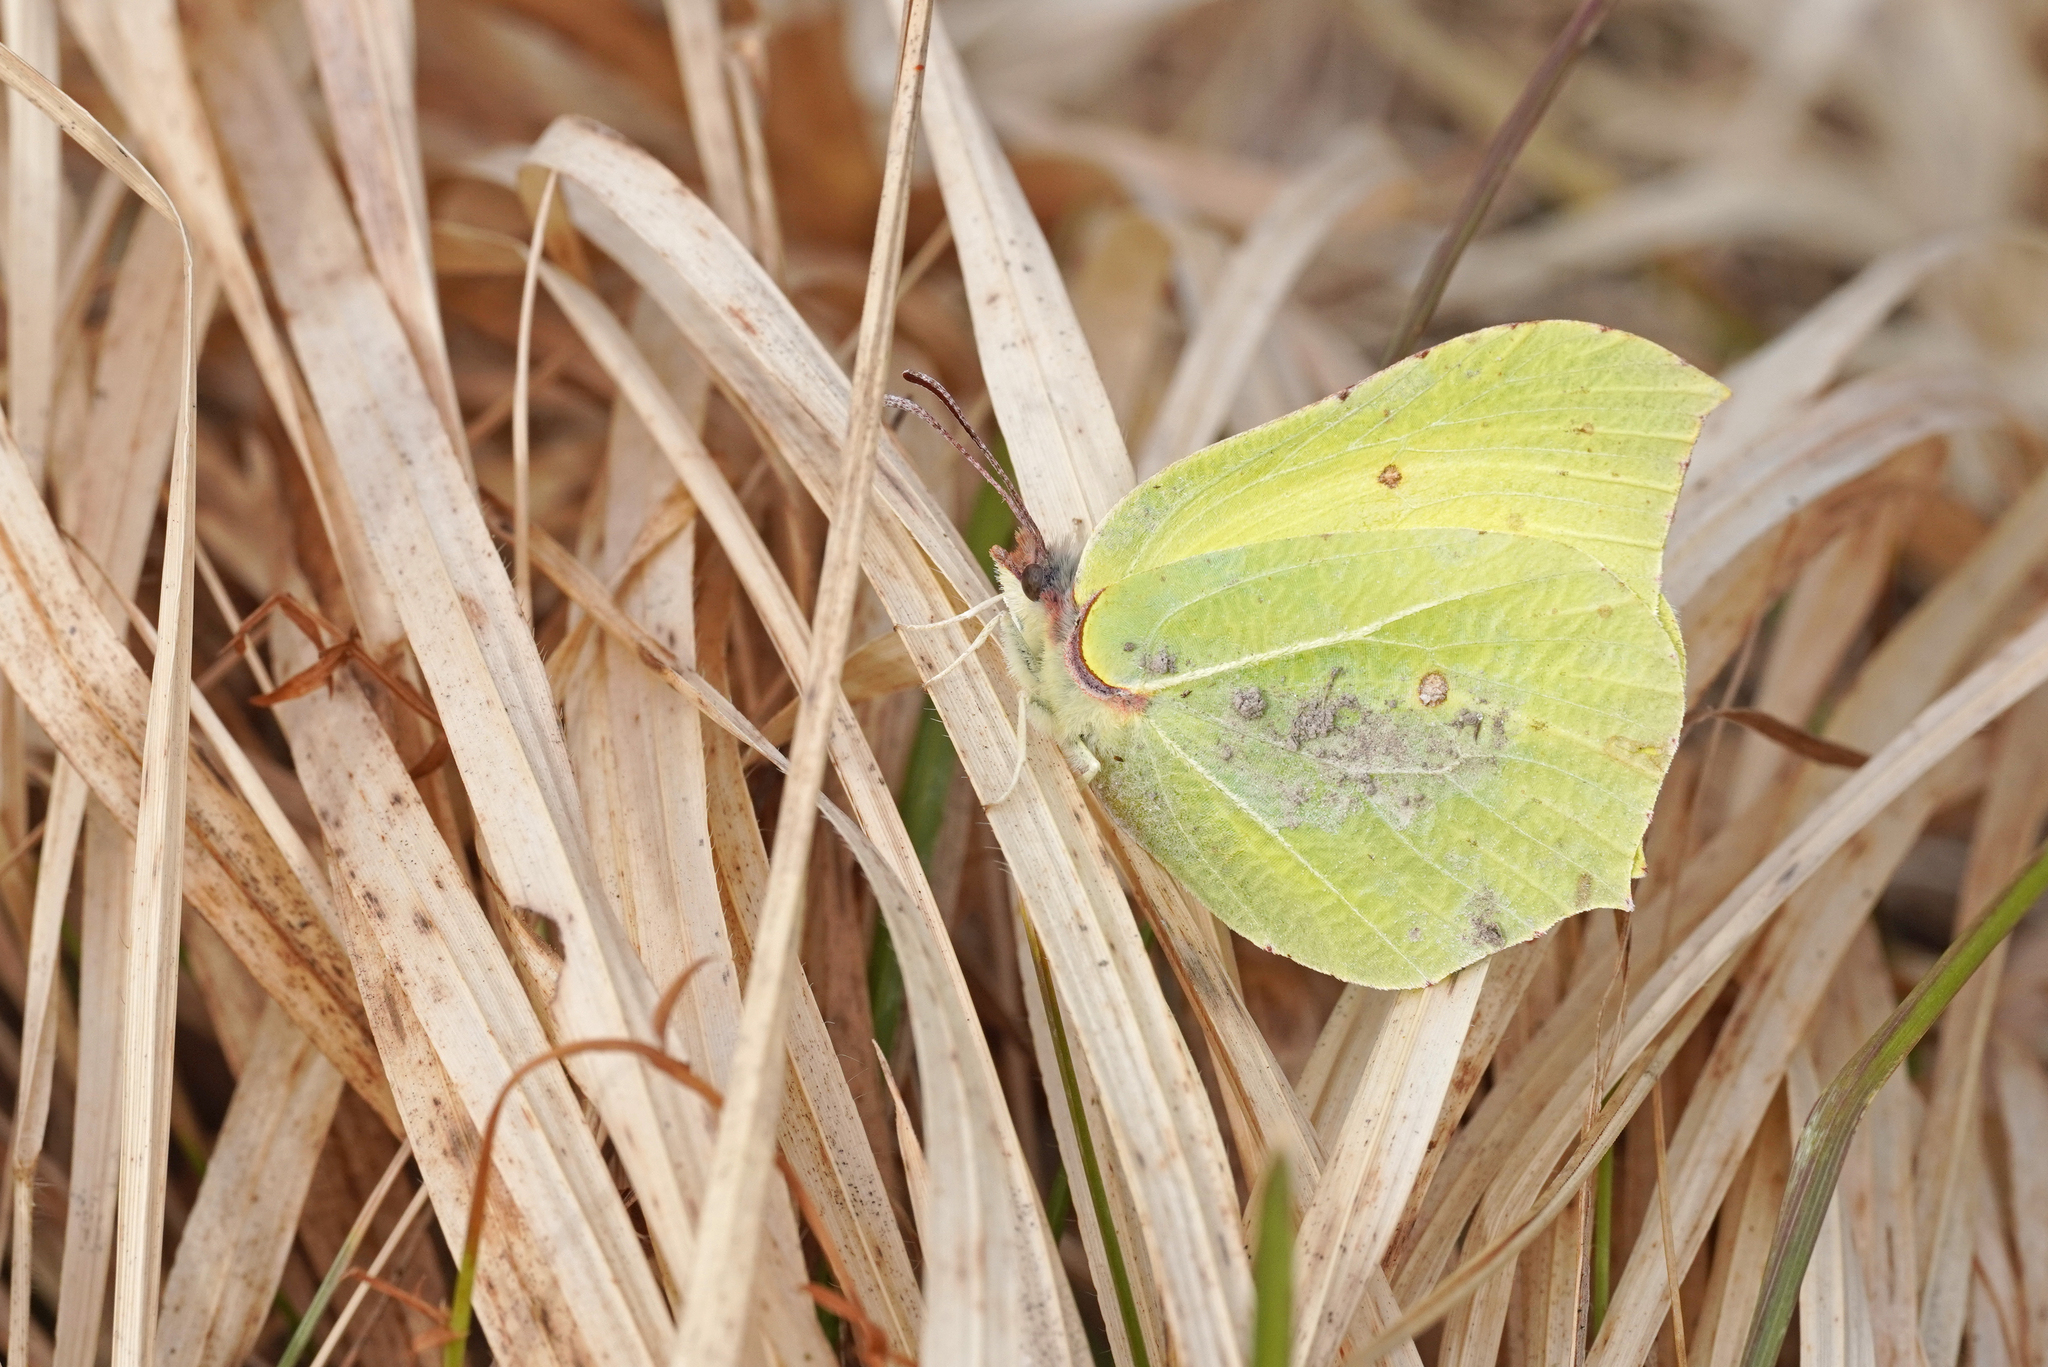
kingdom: Animalia
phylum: Arthropoda
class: Insecta
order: Lepidoptera
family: Pieridae
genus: Gonepteryx
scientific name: Gonepteryx rhamni
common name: Brimstone
